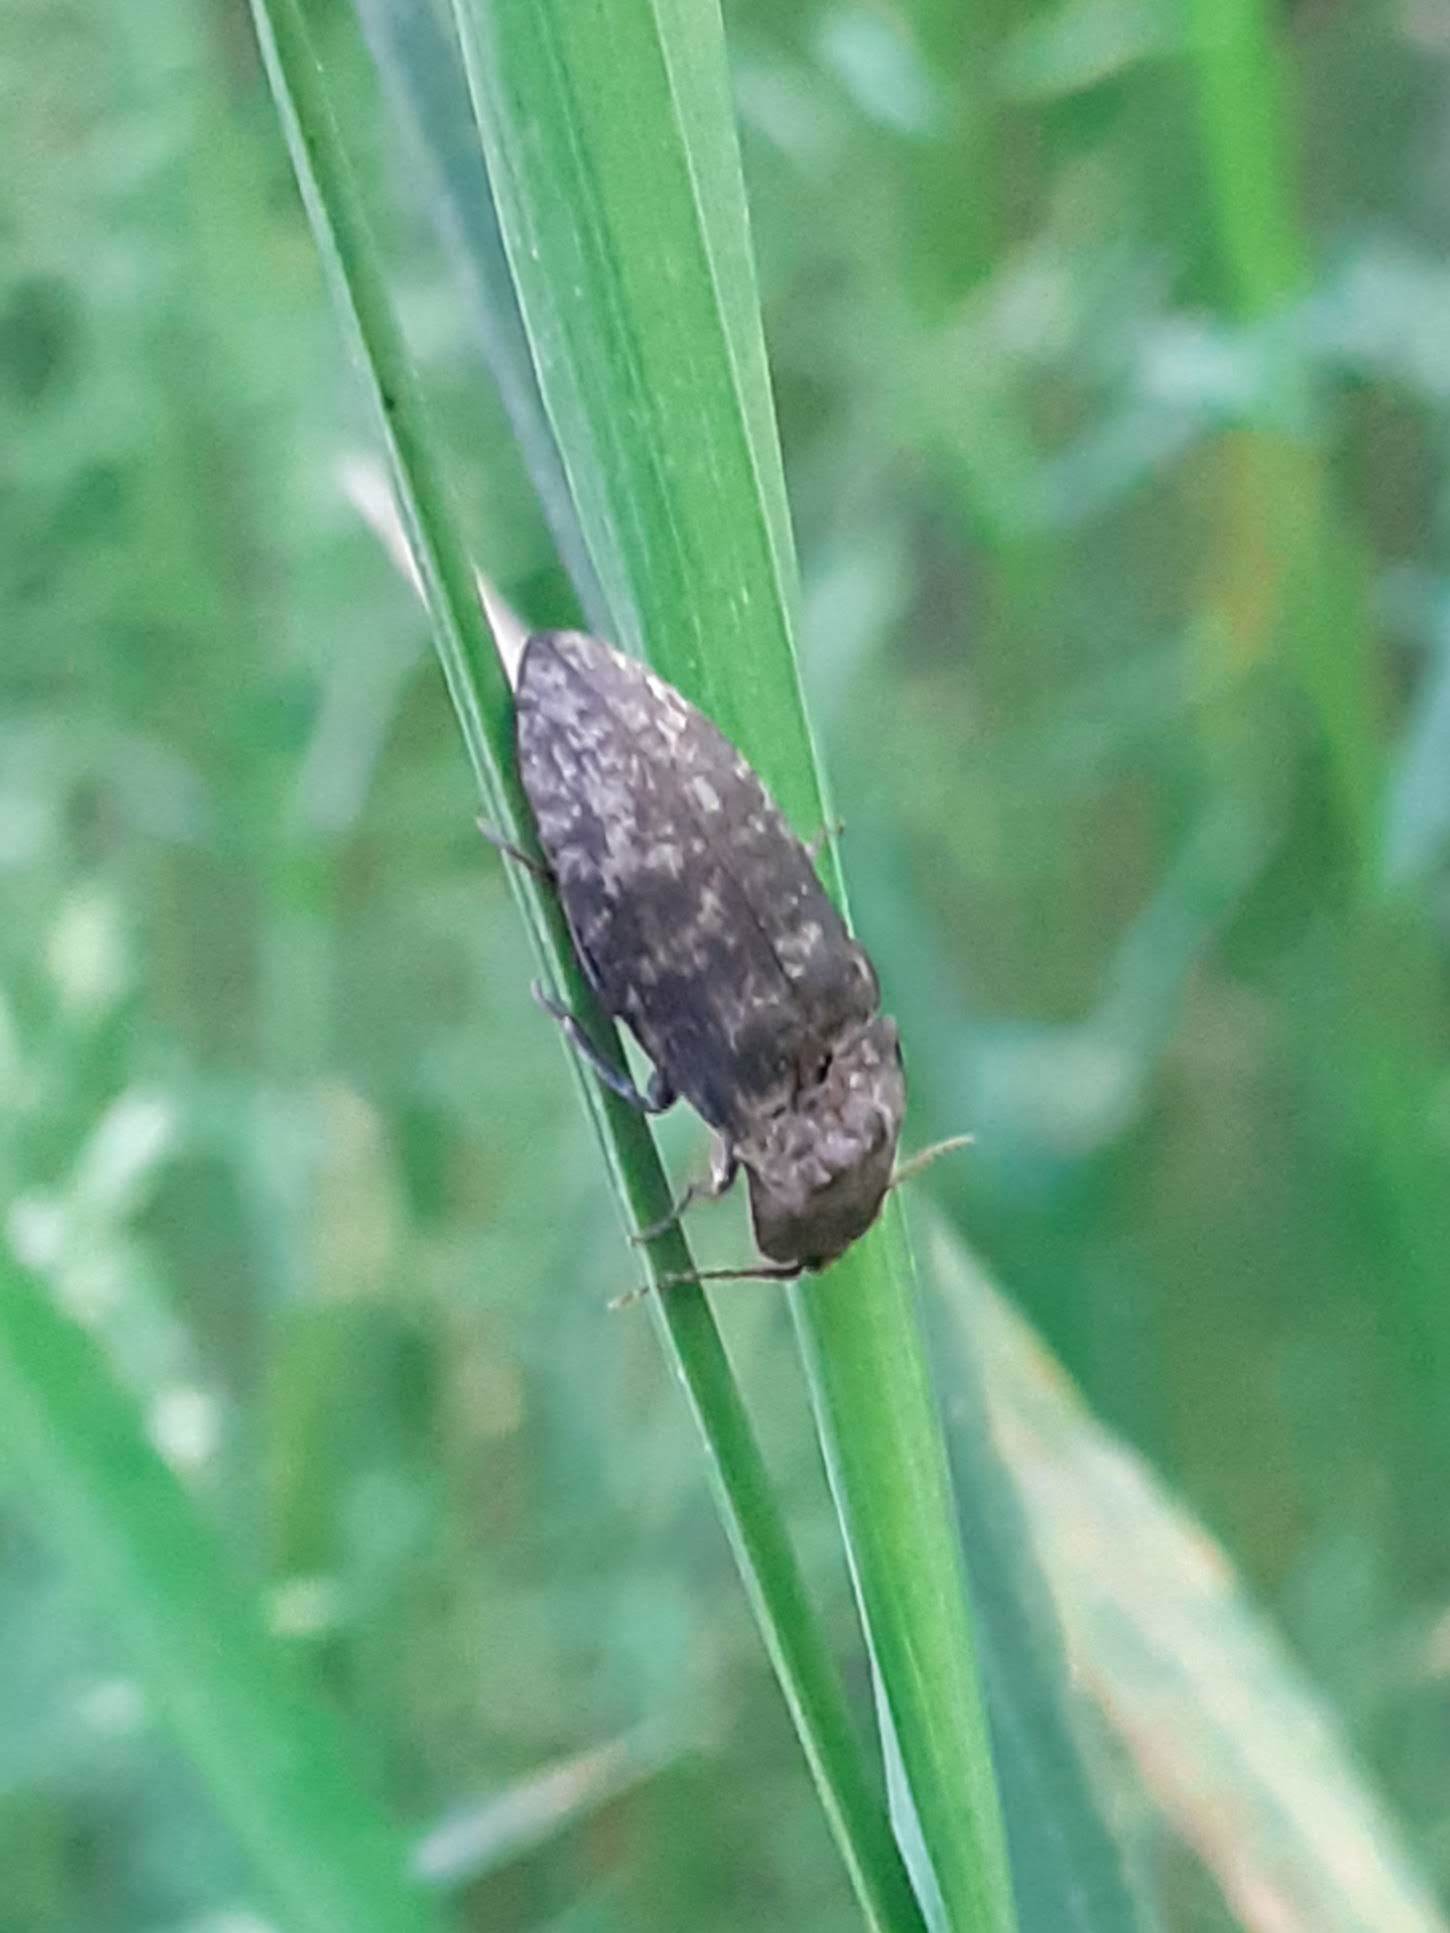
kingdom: Animalia
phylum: Arthropoda
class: Insecta
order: Coleoptera
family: Elateridae
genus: Agrypnus
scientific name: Agrypnus murinus
